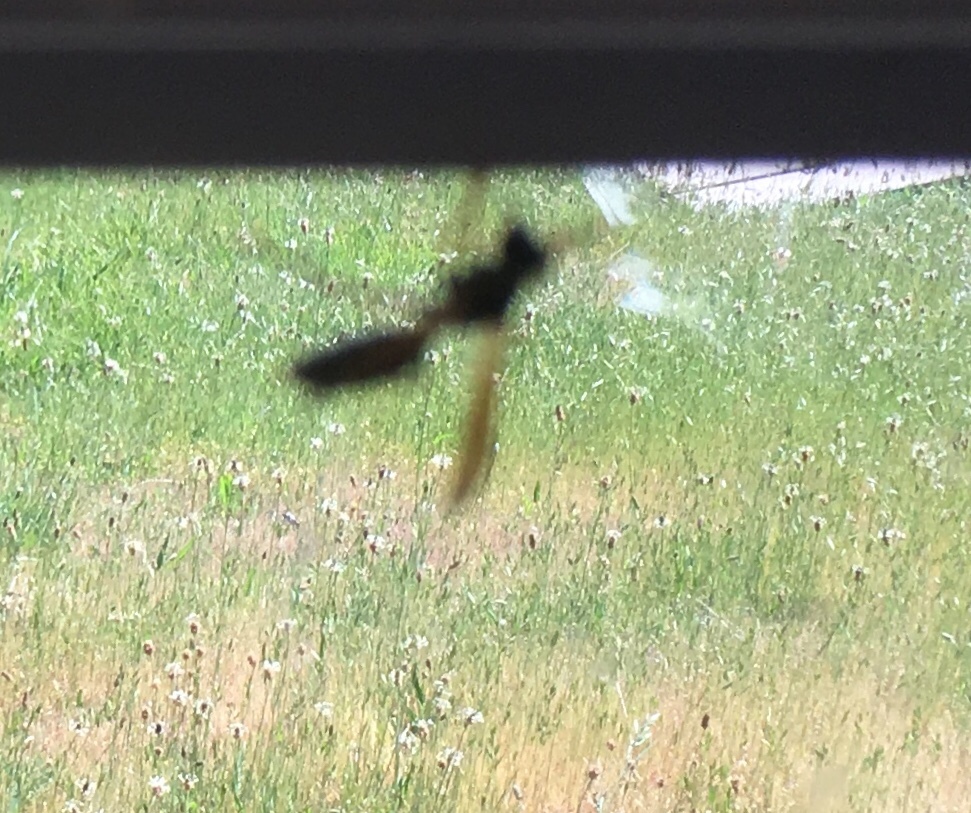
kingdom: Animalia
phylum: Arthropoda
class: Insecta
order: Hymenoptera
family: Vespidae
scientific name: Vespidae
